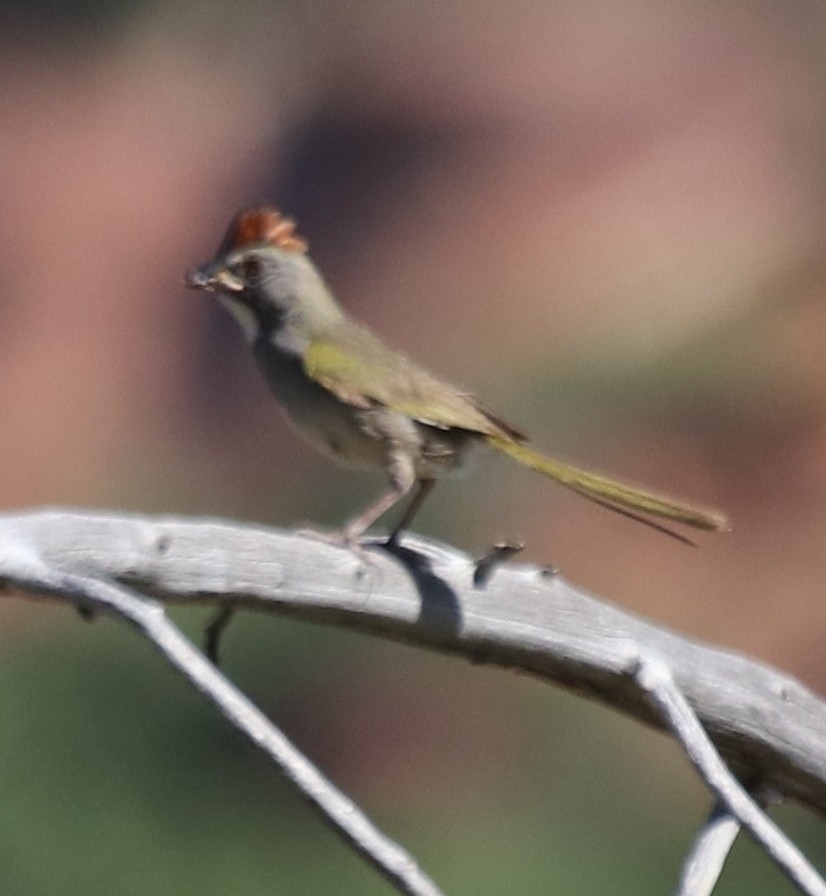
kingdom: Animalia
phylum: Chordata
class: Aves
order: Passeriformes
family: Passerellidae
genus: Pipilo
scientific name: Pipilo chlorurus
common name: Green-tailed towhee
